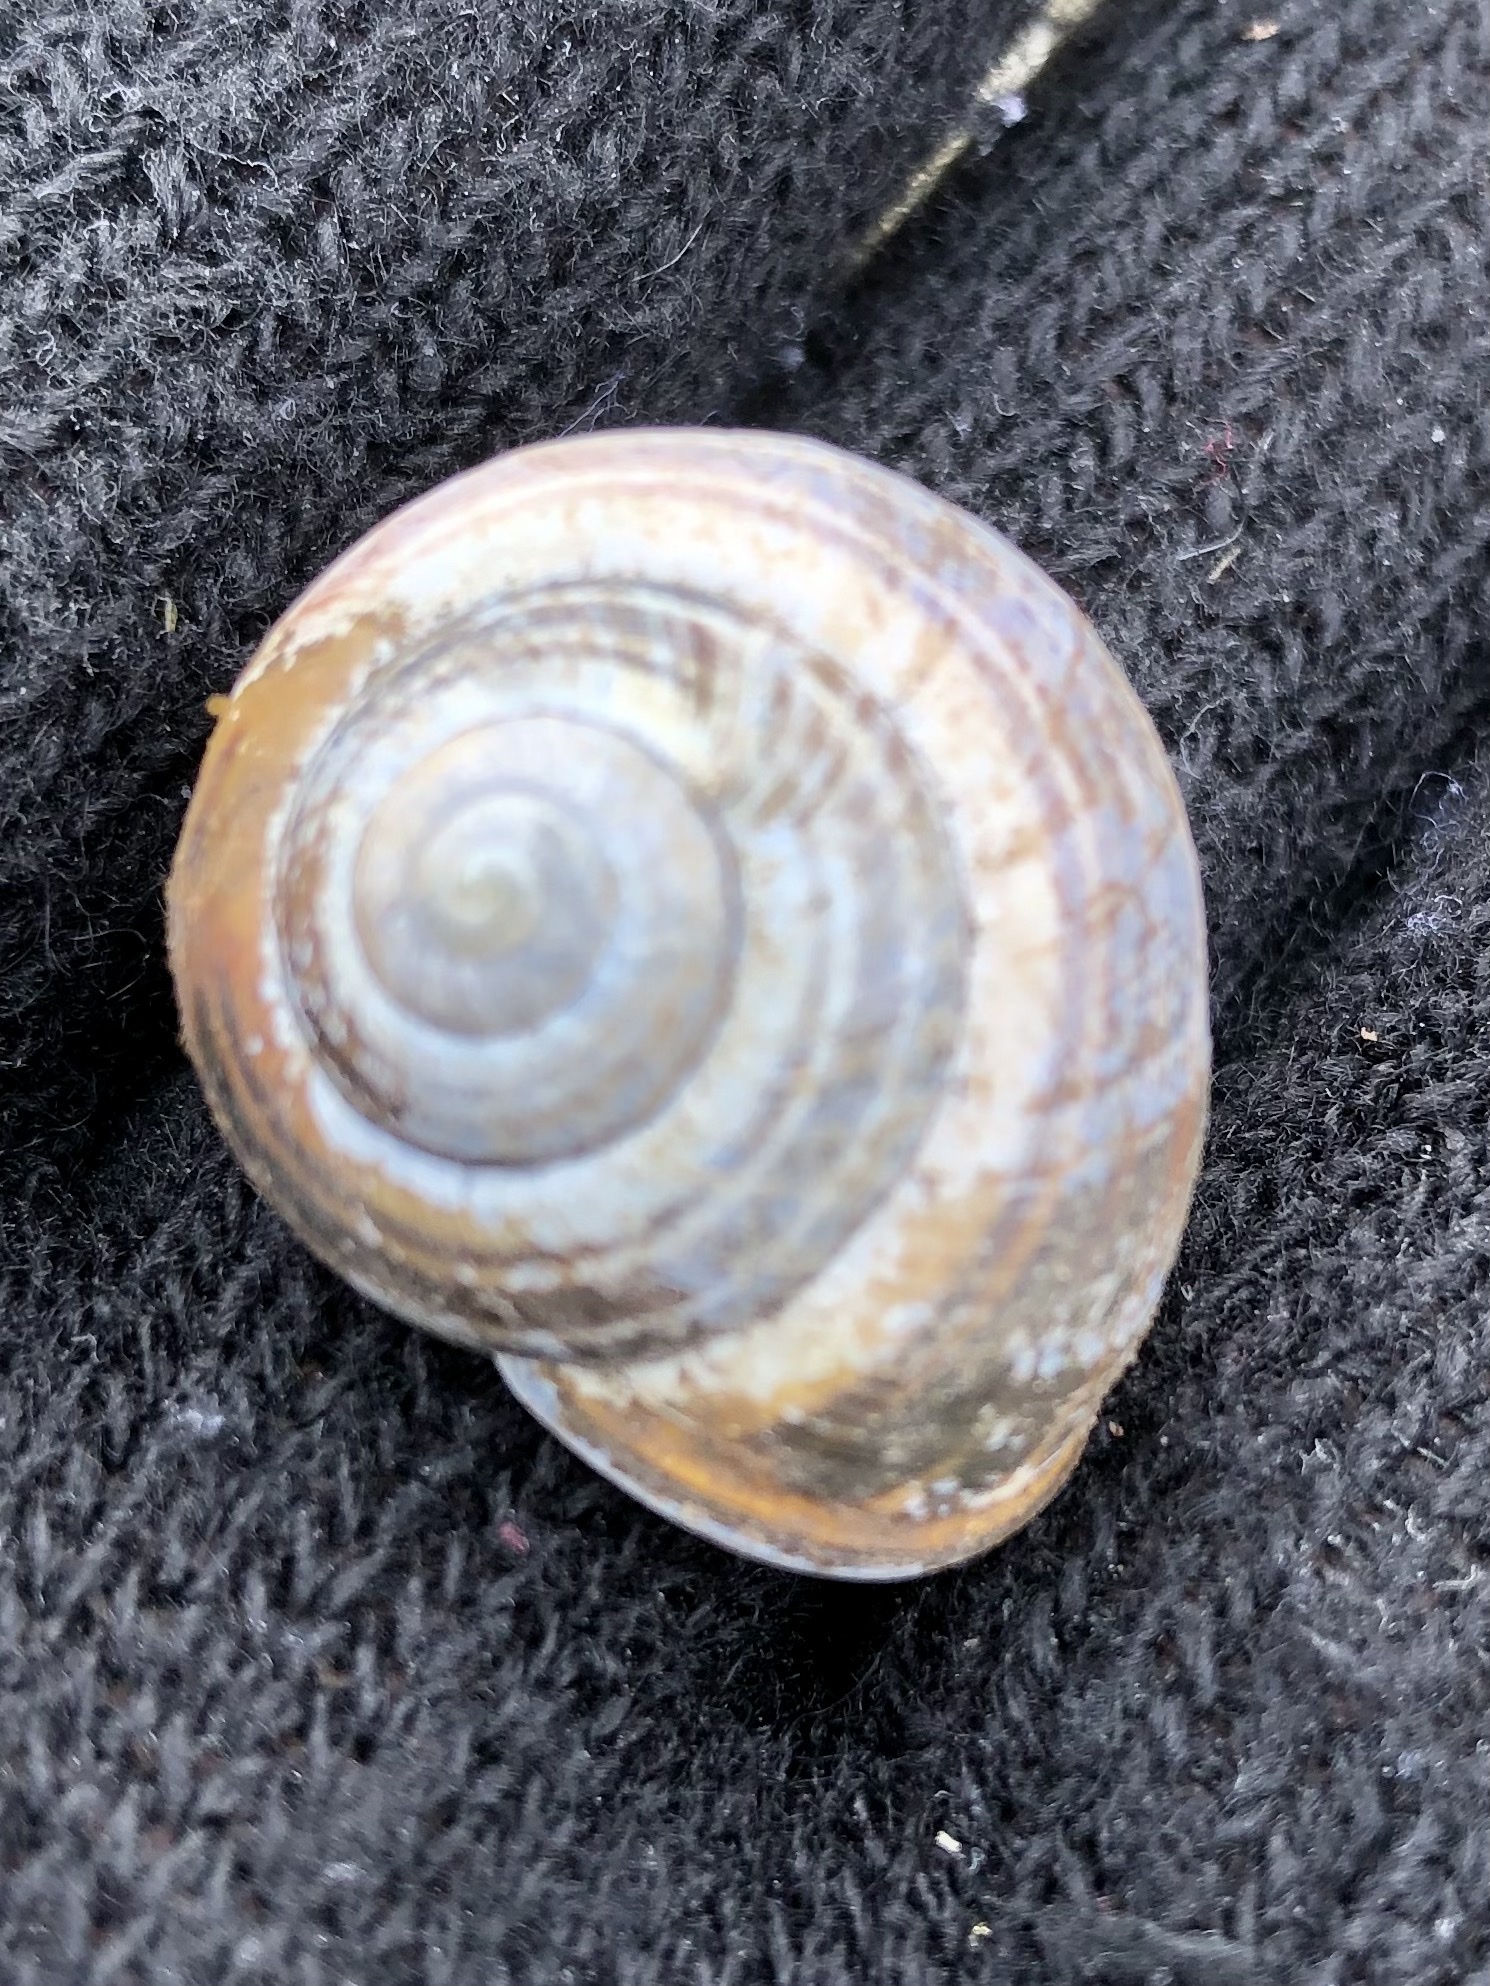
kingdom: Animalia
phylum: Mollusca
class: Gastropoda
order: Stylommatophora
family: Helicidae
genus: Cepaea
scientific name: Cepaea nemoralis
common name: Grovesnail
